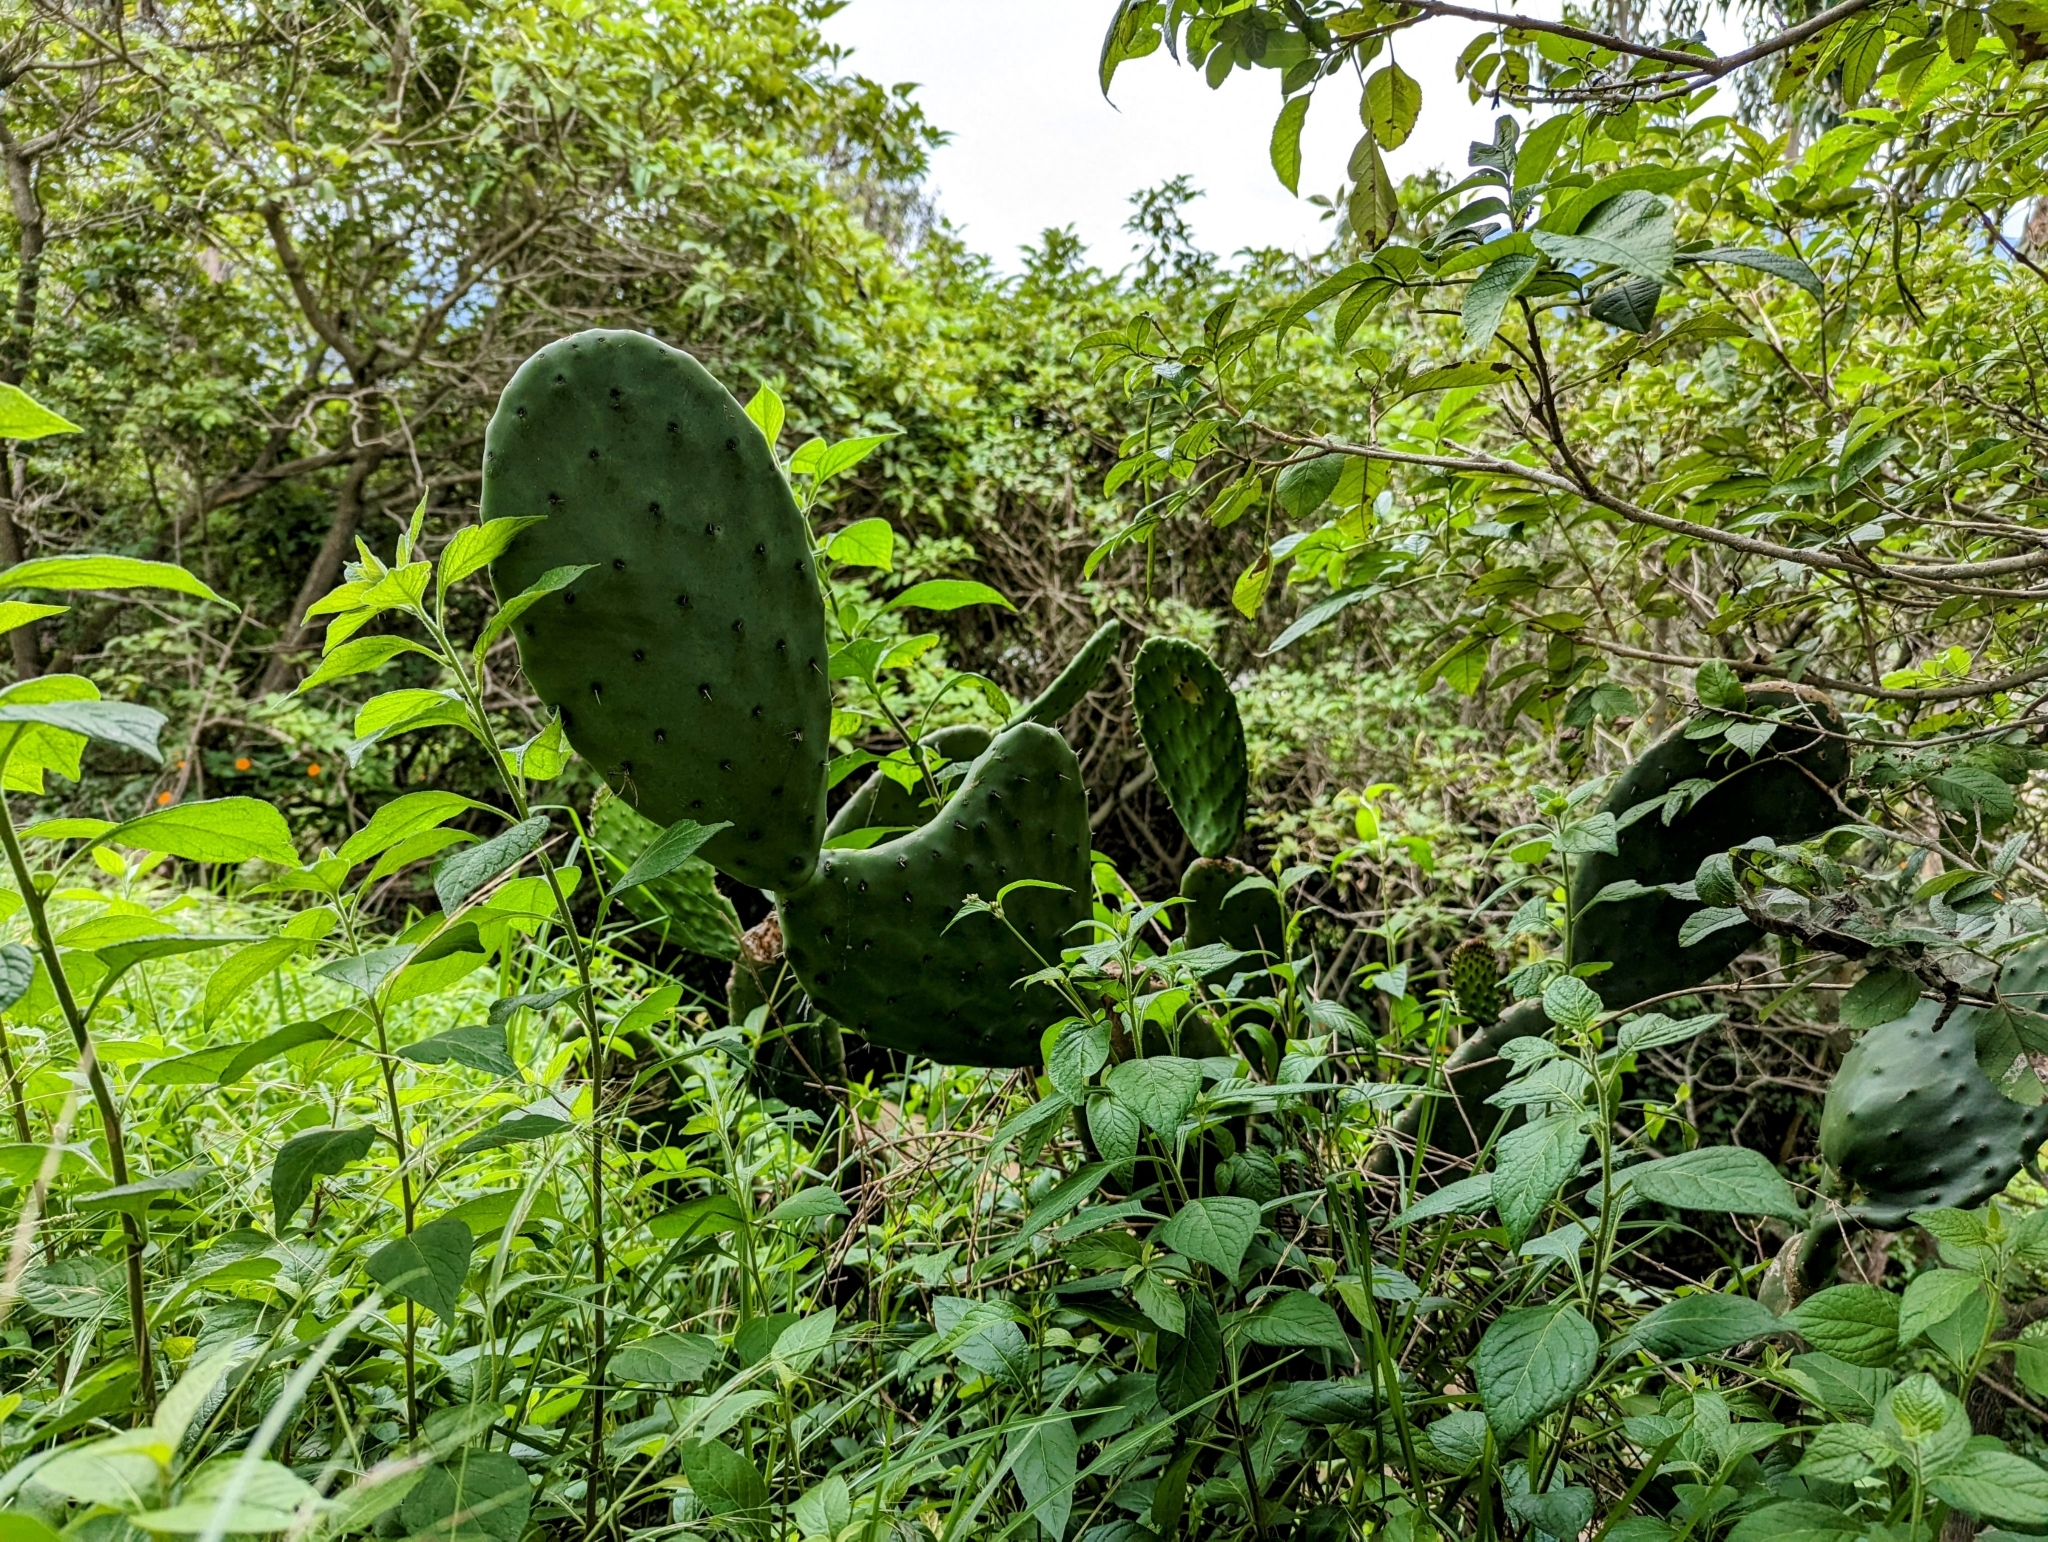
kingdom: Plantae
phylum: Tracheophyta
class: Magnoliopsida
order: Caryophyllales
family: Cactaceae
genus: Opuntia
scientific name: Opuntia ficus-indica
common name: Barbary fig
